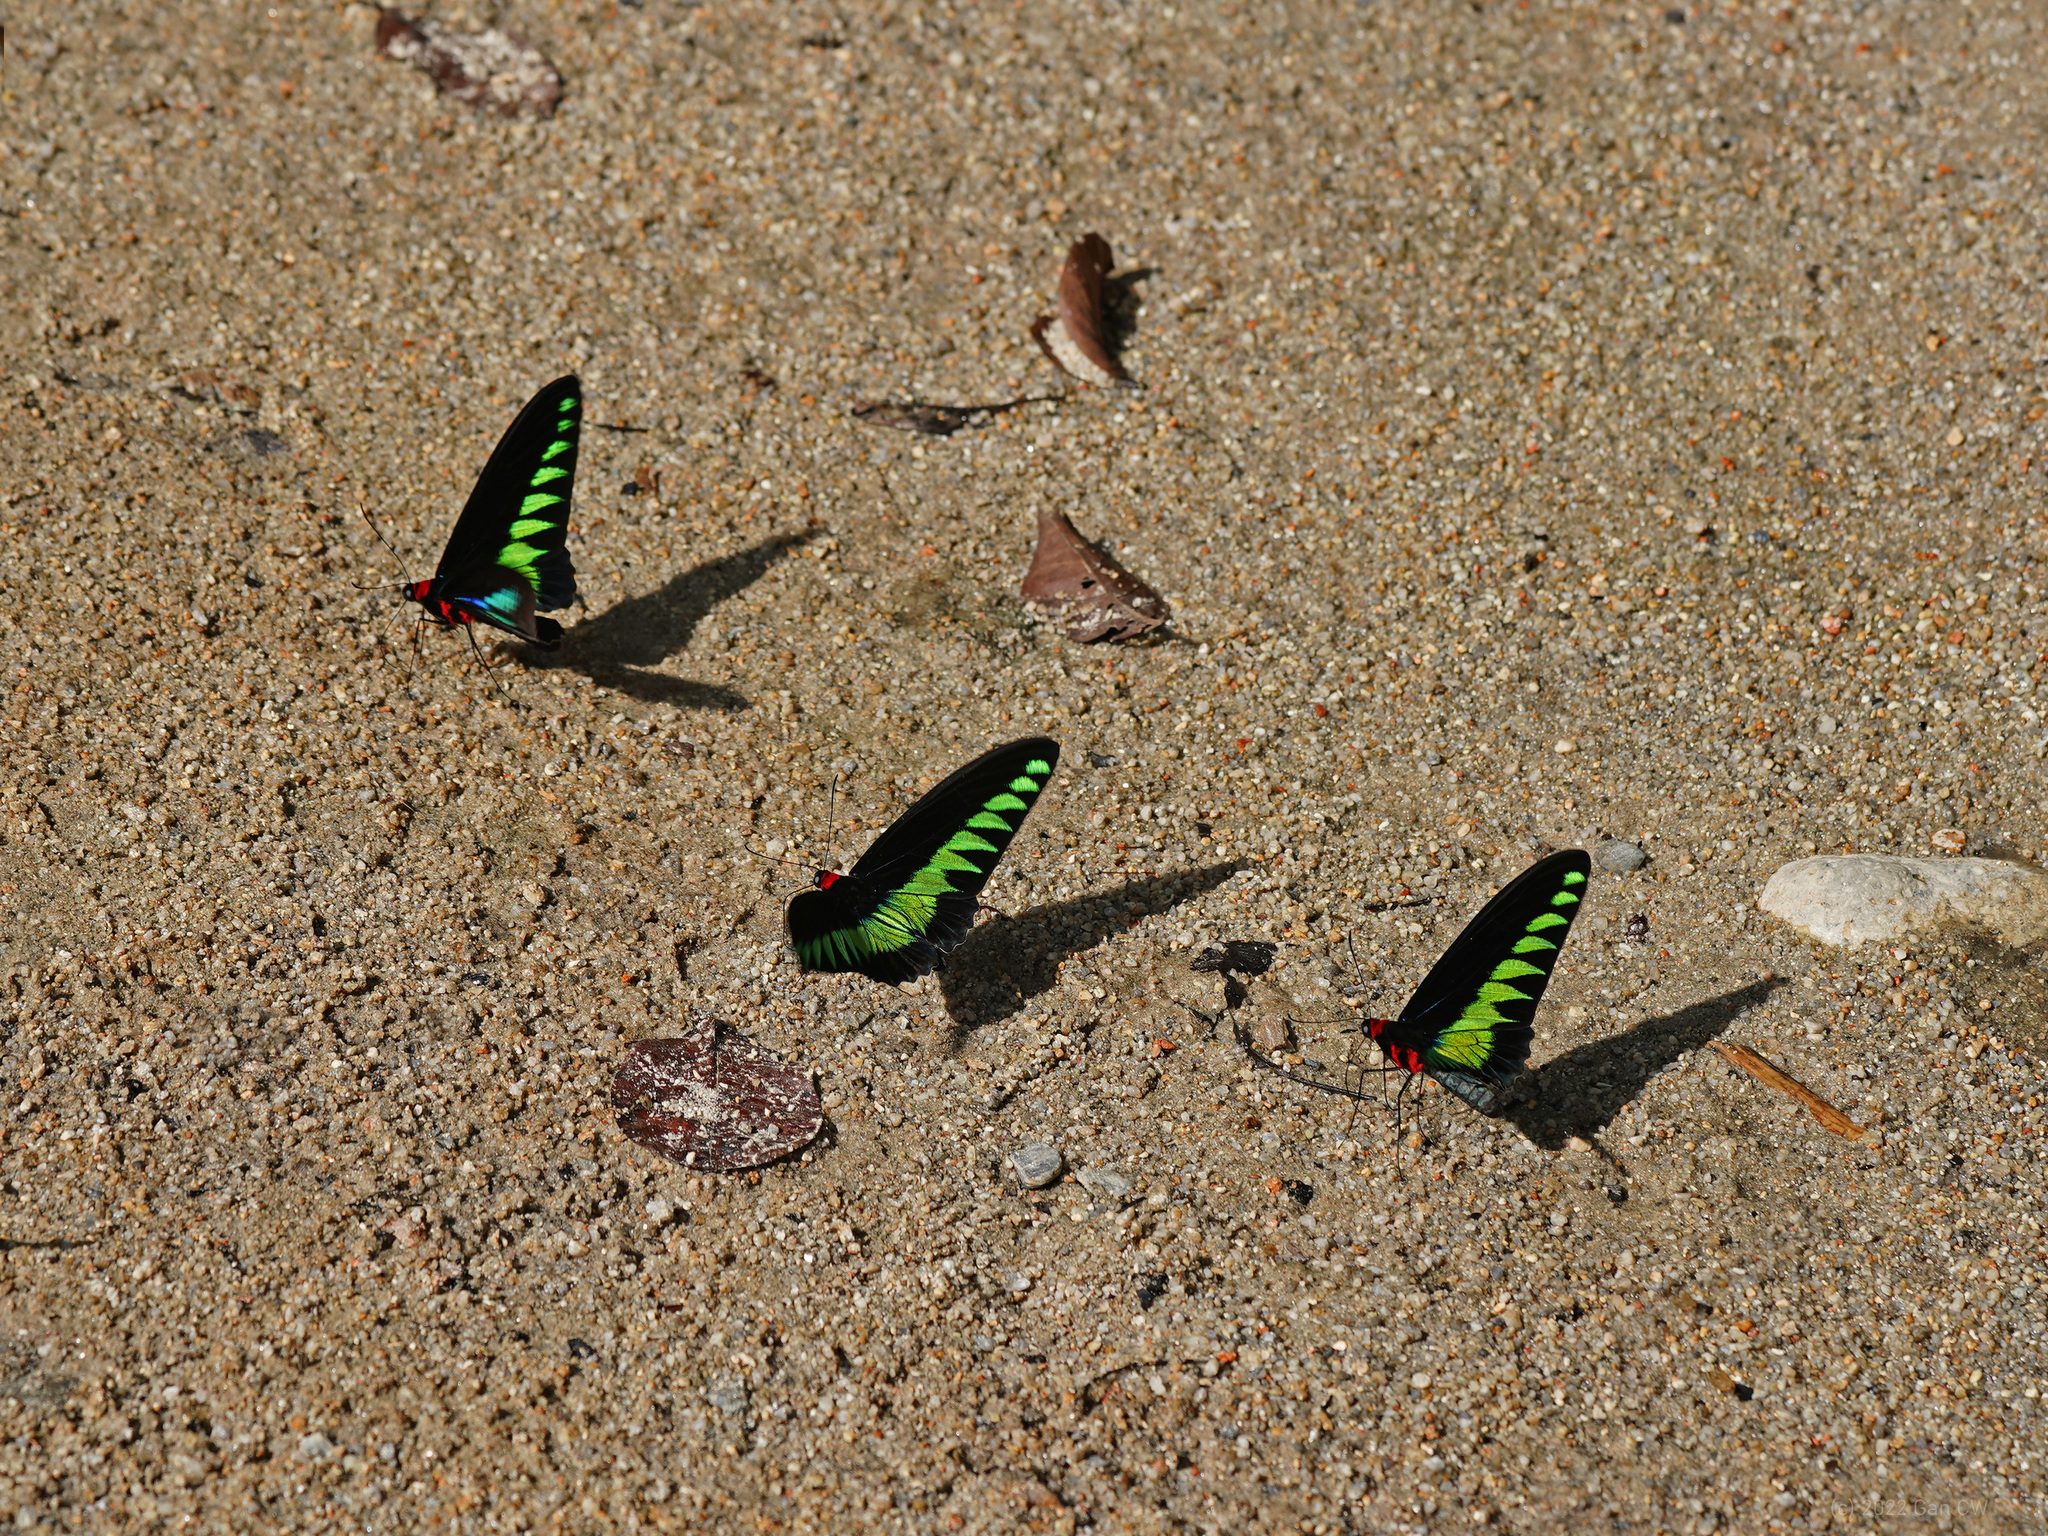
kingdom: Animalia
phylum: Arthropoda
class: Insecta
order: Lepidoptera
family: Papilionidae
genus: Trogonoptera
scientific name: Trogonoptera brookiana
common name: Raja brooke's birdwing
